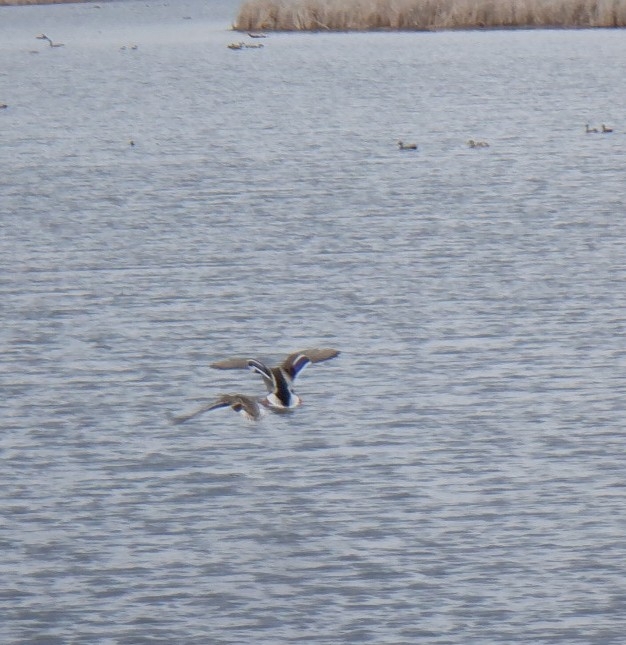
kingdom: Animalia
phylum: Chordata
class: Aves
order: Anseriformes
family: Anatidae
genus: Anas
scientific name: Anas platyrhynchos
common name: Mallard
